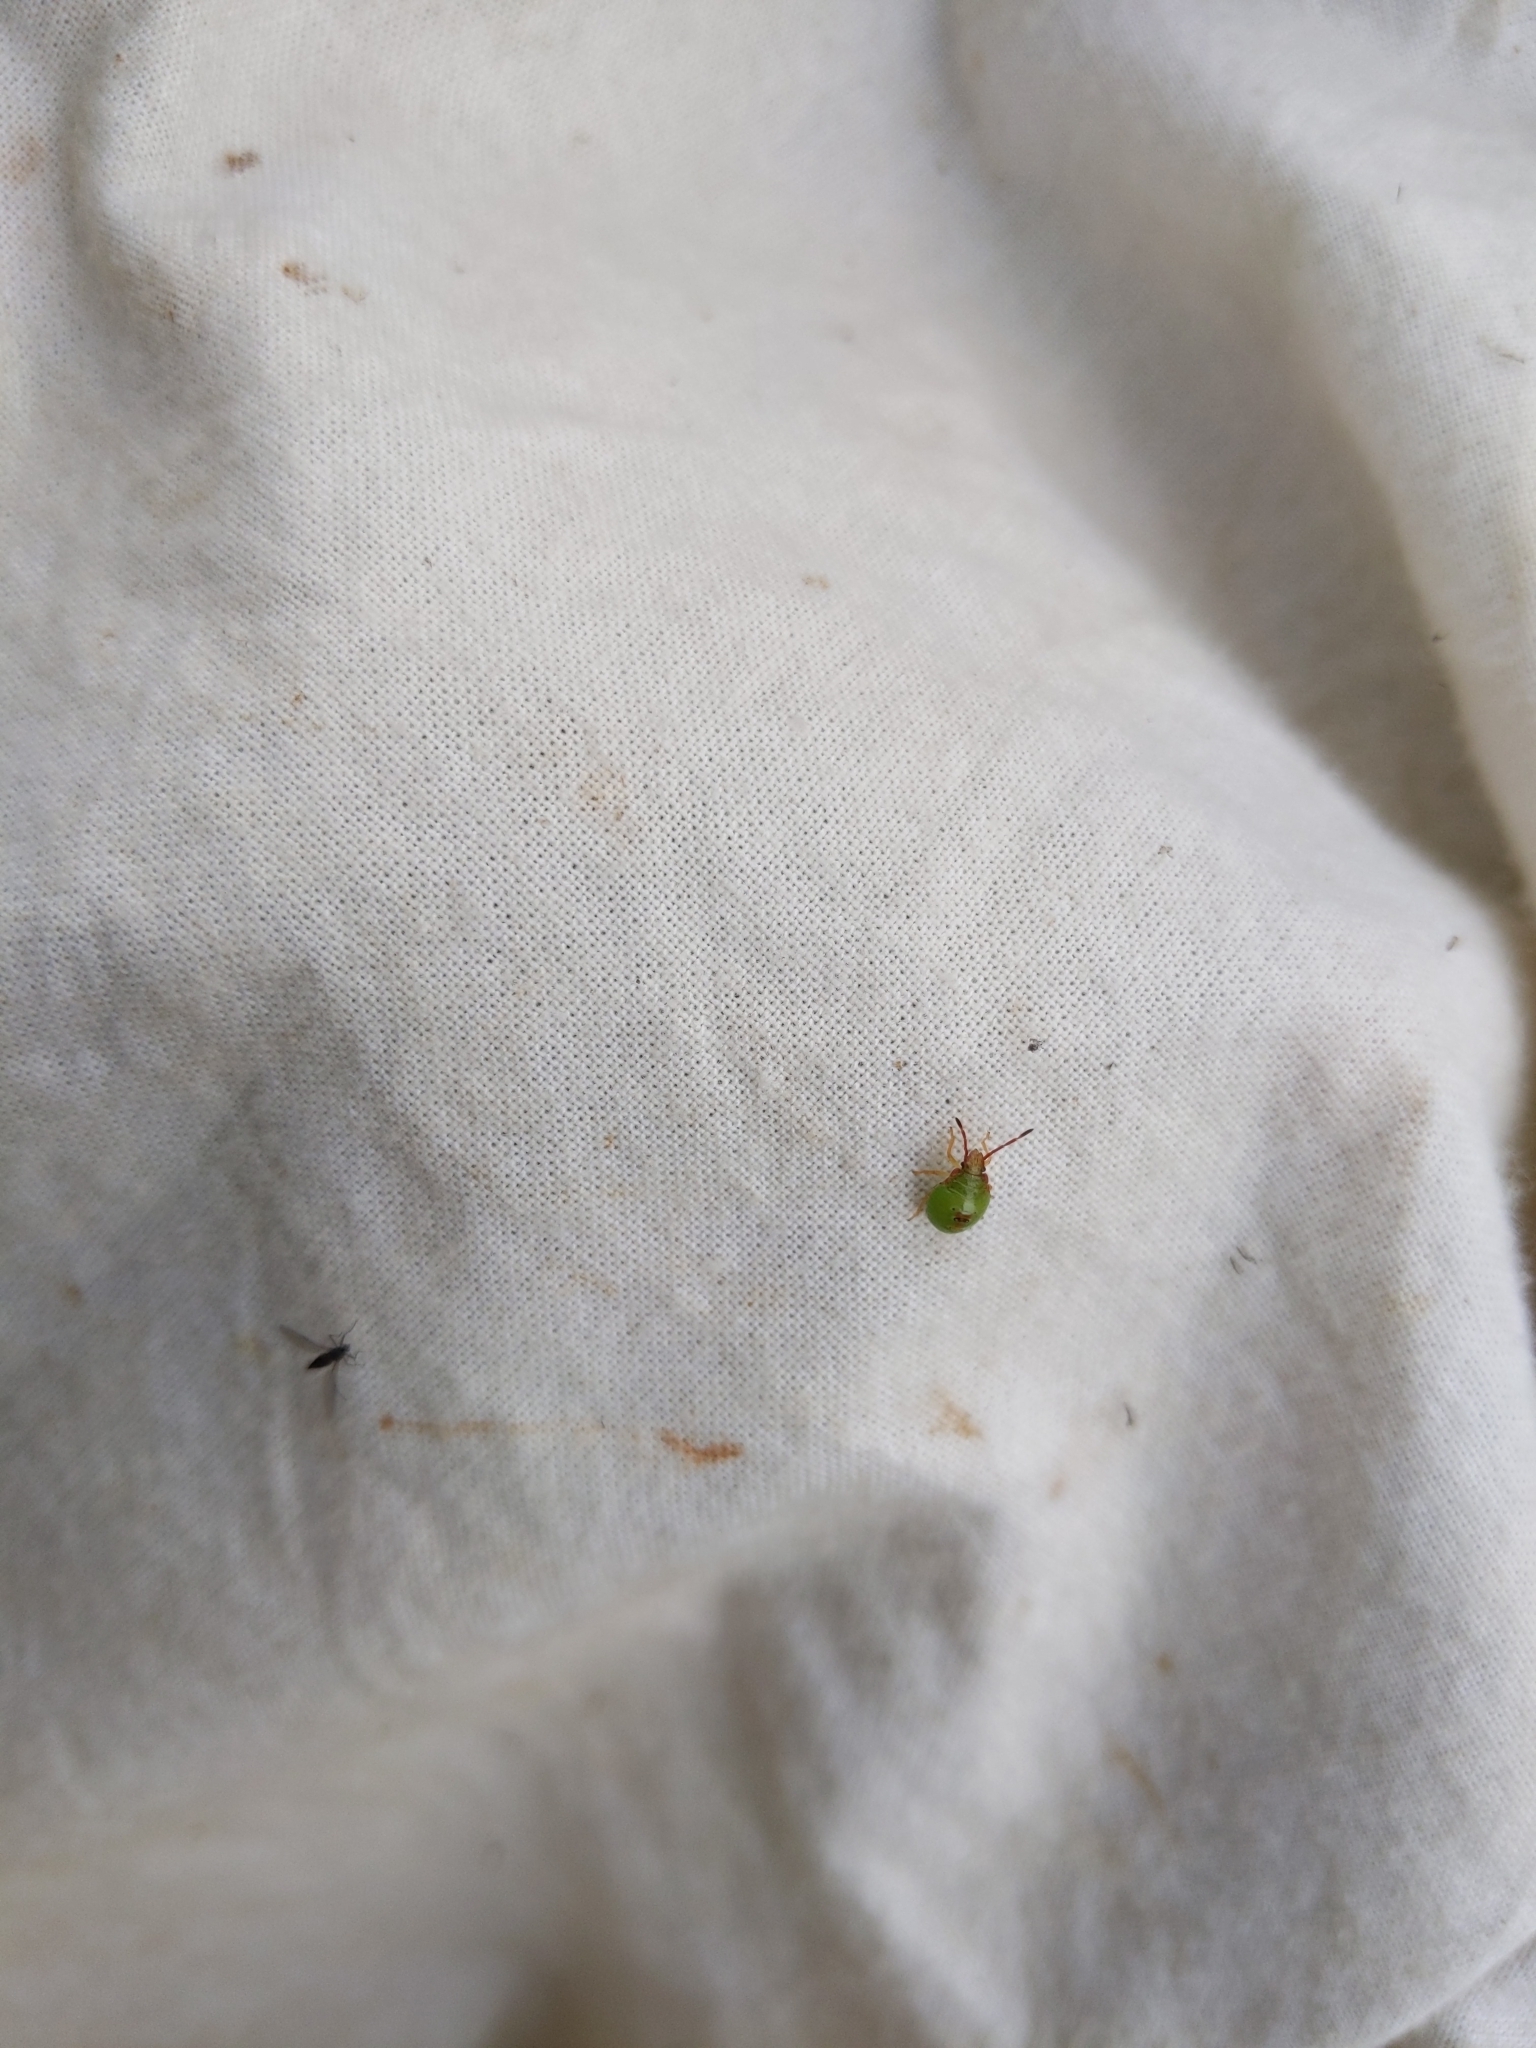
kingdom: Animalia
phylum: Arthropoda
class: Insecta
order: Hemiptera
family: Acanthosomatidae
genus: Acanthosoma
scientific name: Acanthosoma haemorrhoidale
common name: Hawthorn shieldbug
